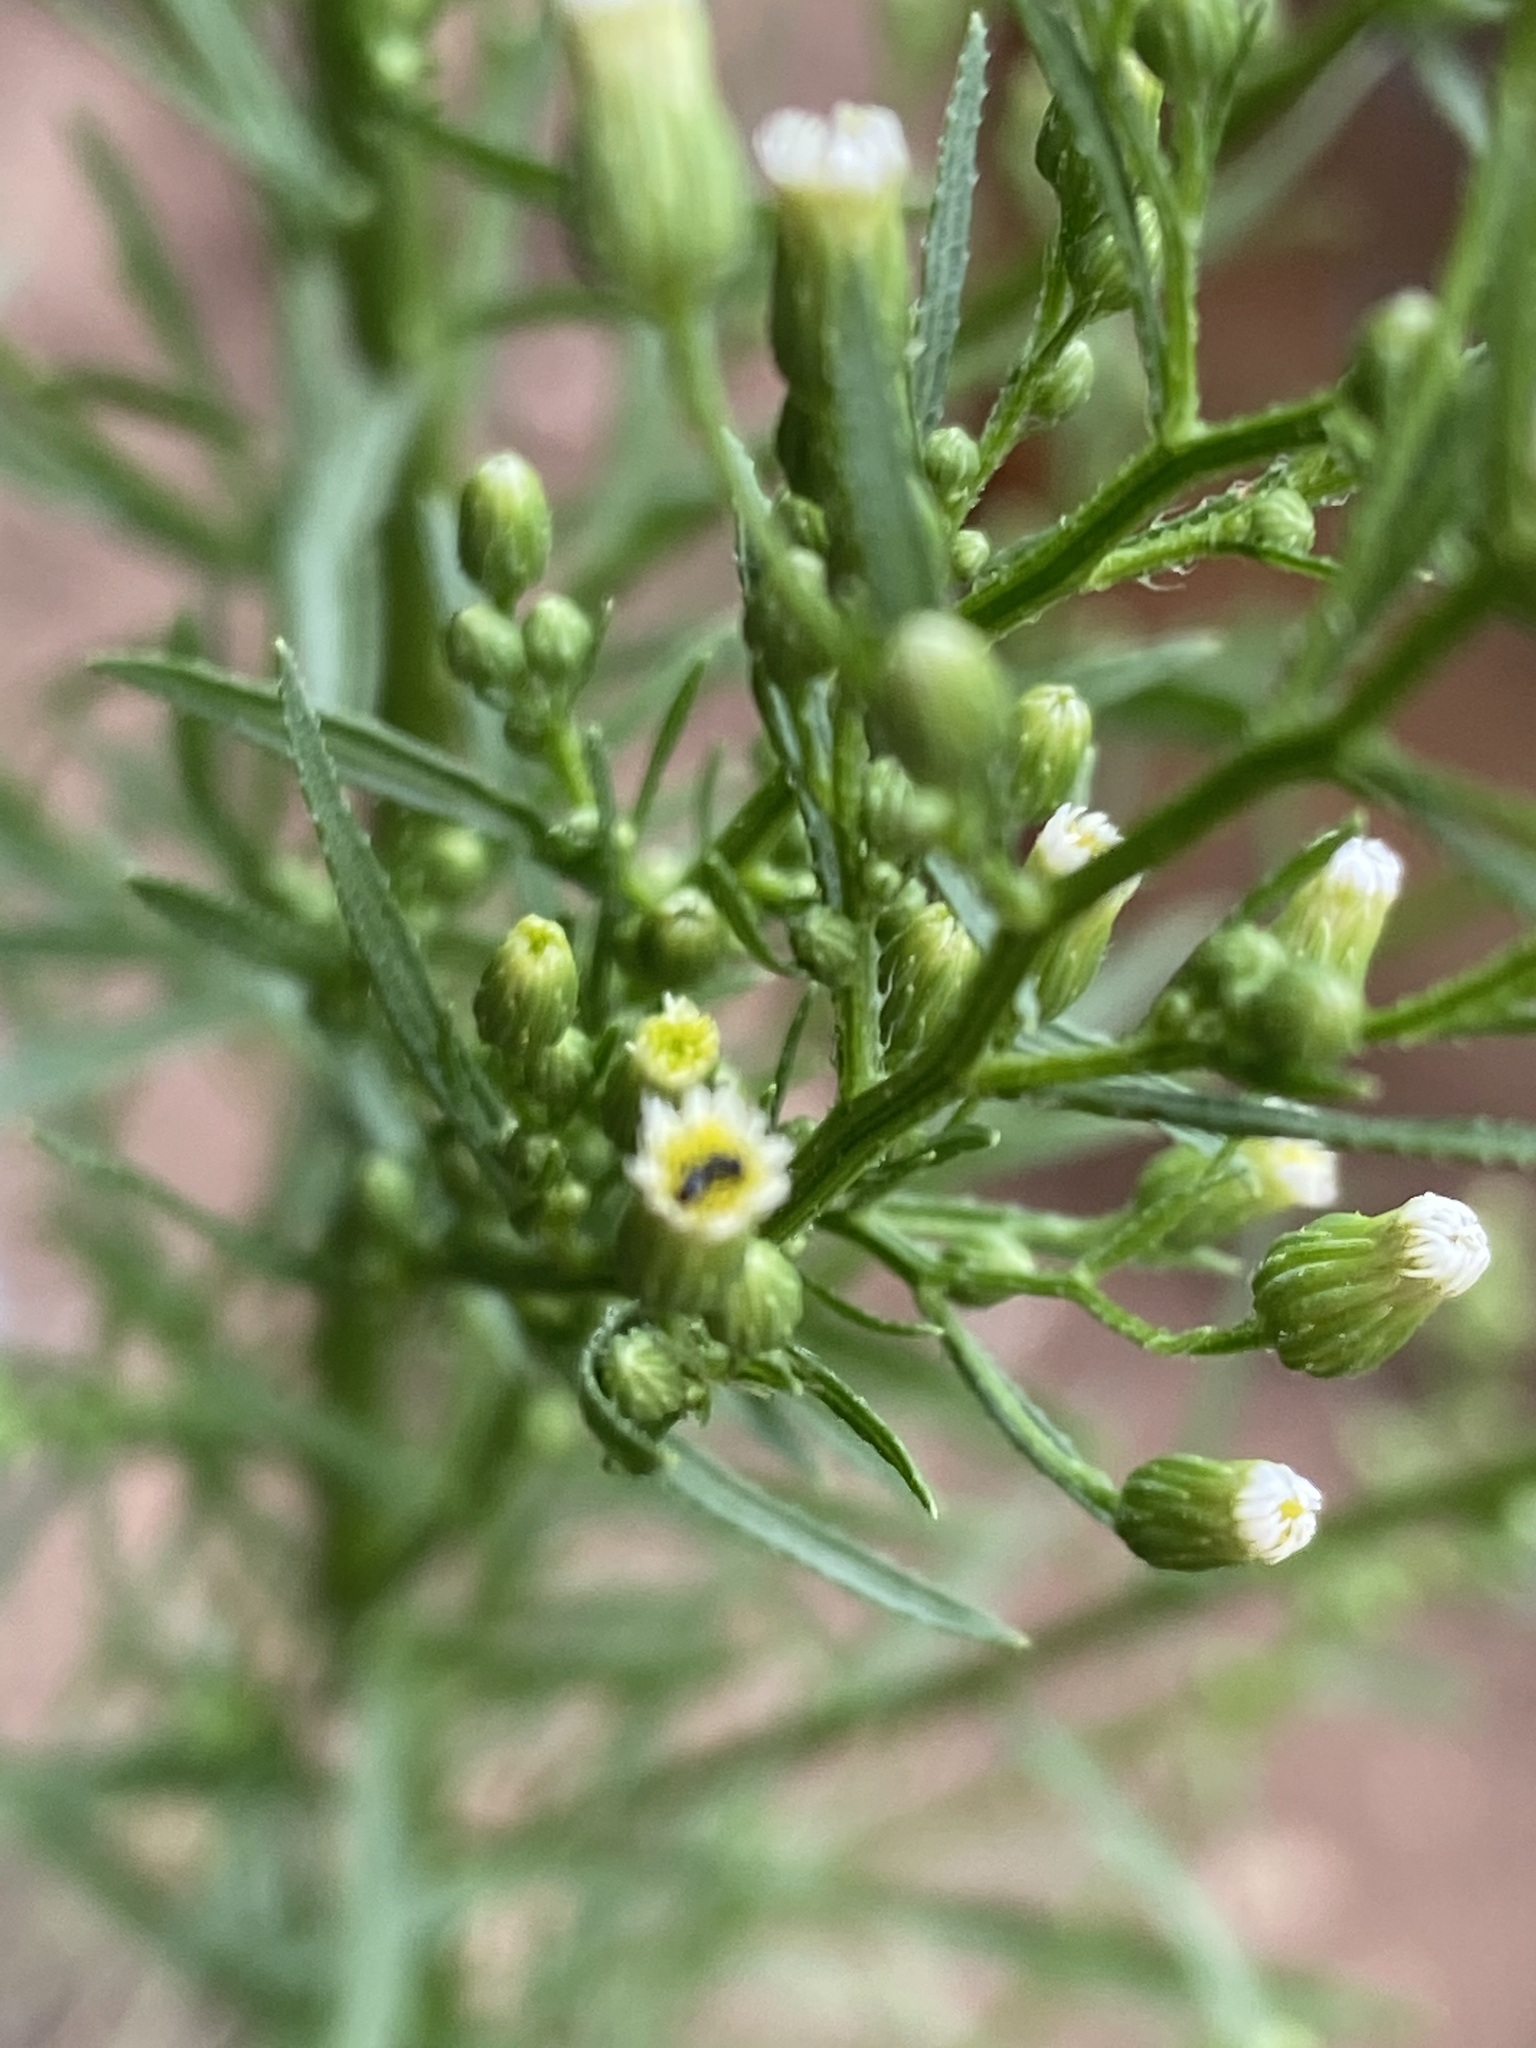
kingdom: Plantae
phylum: Tracheophyta
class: Magnoliopsida
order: Asterales
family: Asteraceae
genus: Erigeron
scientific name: Erigeron canadensis
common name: Canadian fleabane
